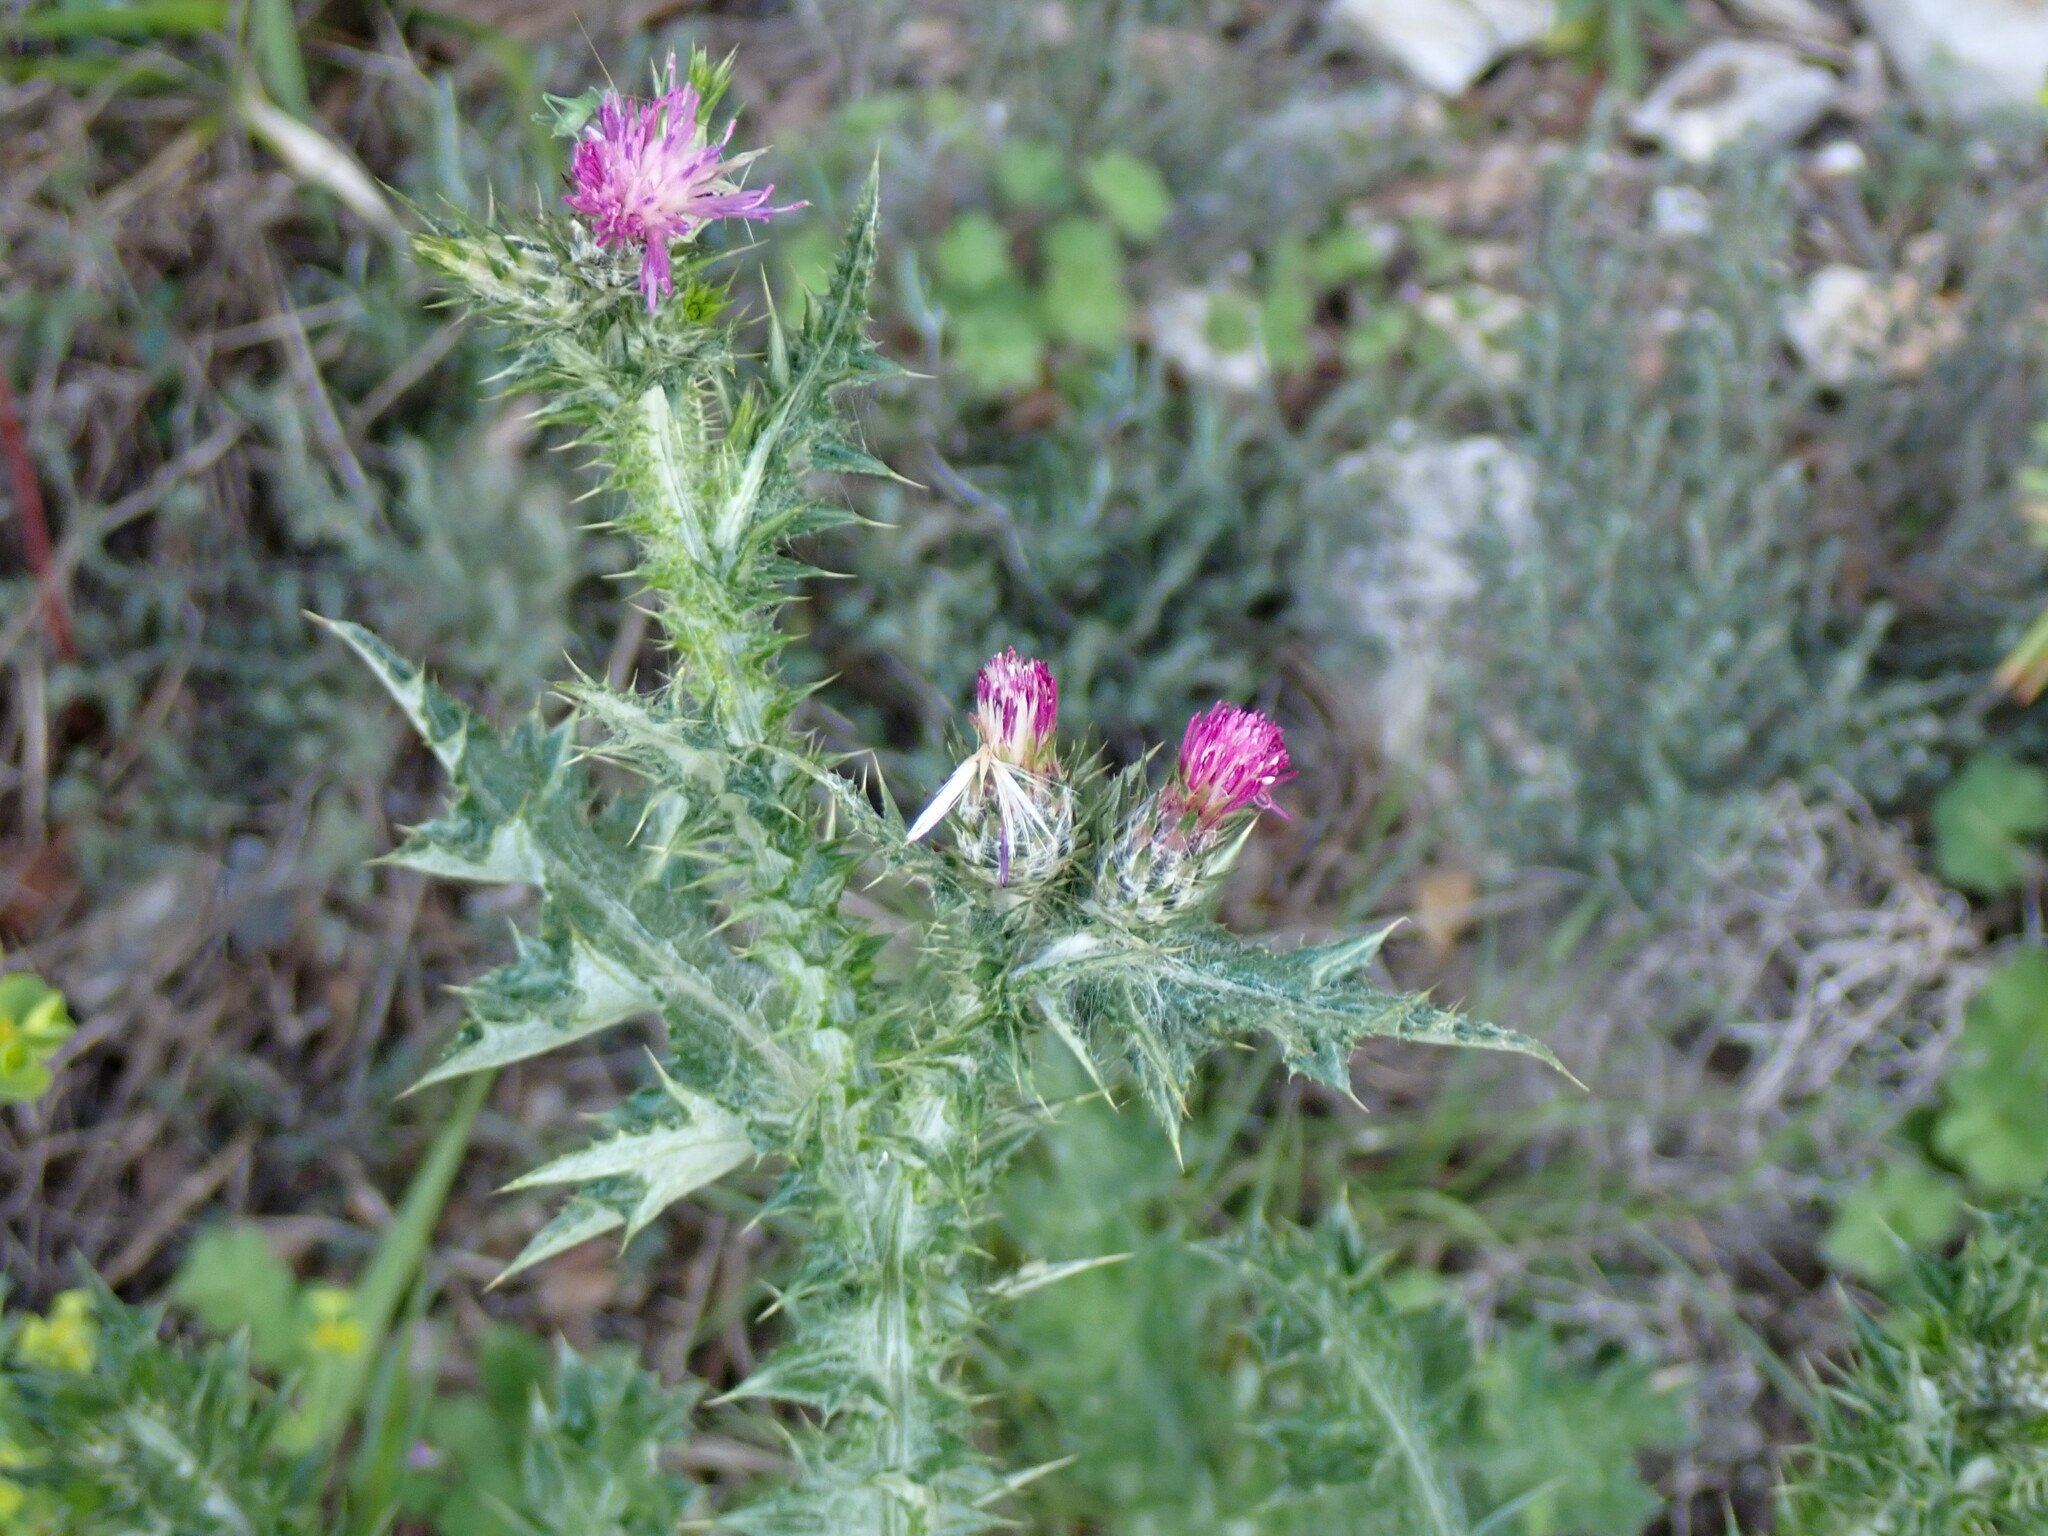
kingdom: Plantae
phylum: Tracheophyta
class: Magnoliopsida
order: Asterales
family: Asteraceae
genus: Carduus
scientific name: Carduus pycnocephalus
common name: Plymouth thistle
